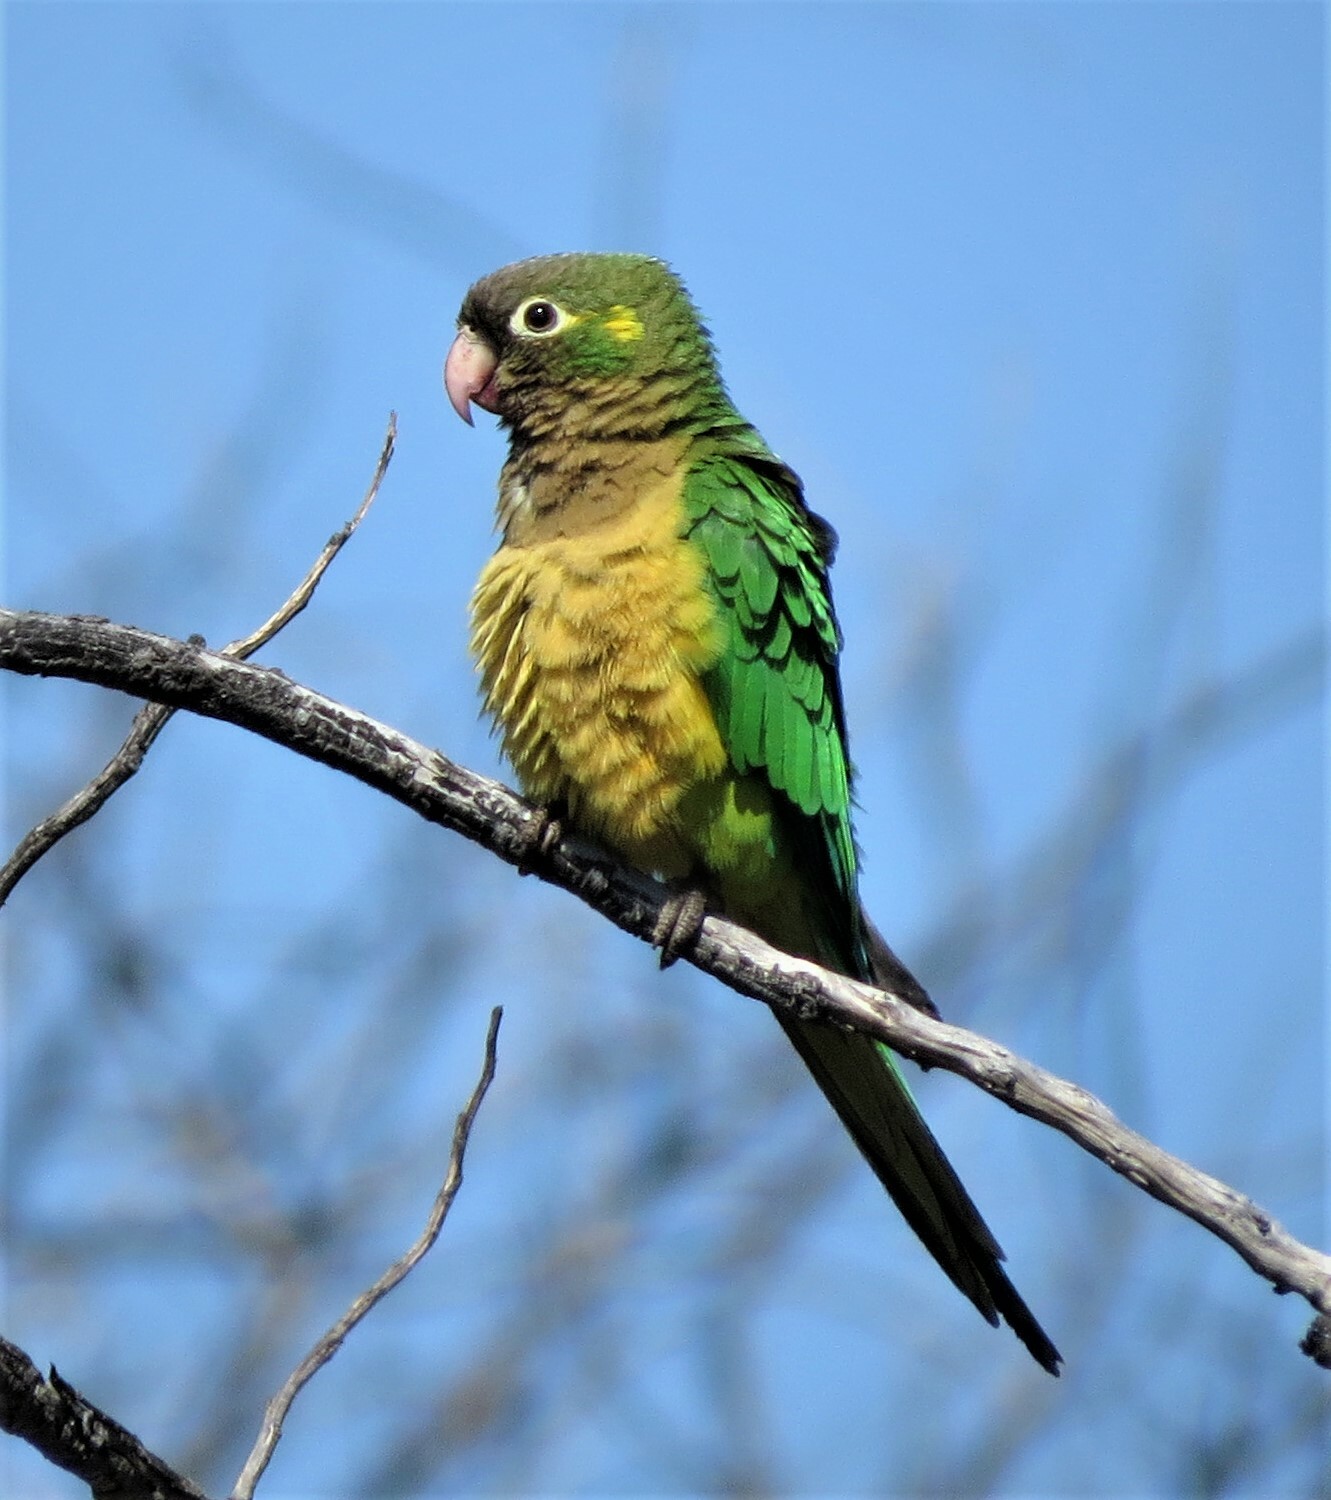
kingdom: Animalia
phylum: Chordata
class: Aves
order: Psittaciformes
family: Psittacidae
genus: Aratinga
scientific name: Aratinga cactorum
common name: Caatinga parakeet
